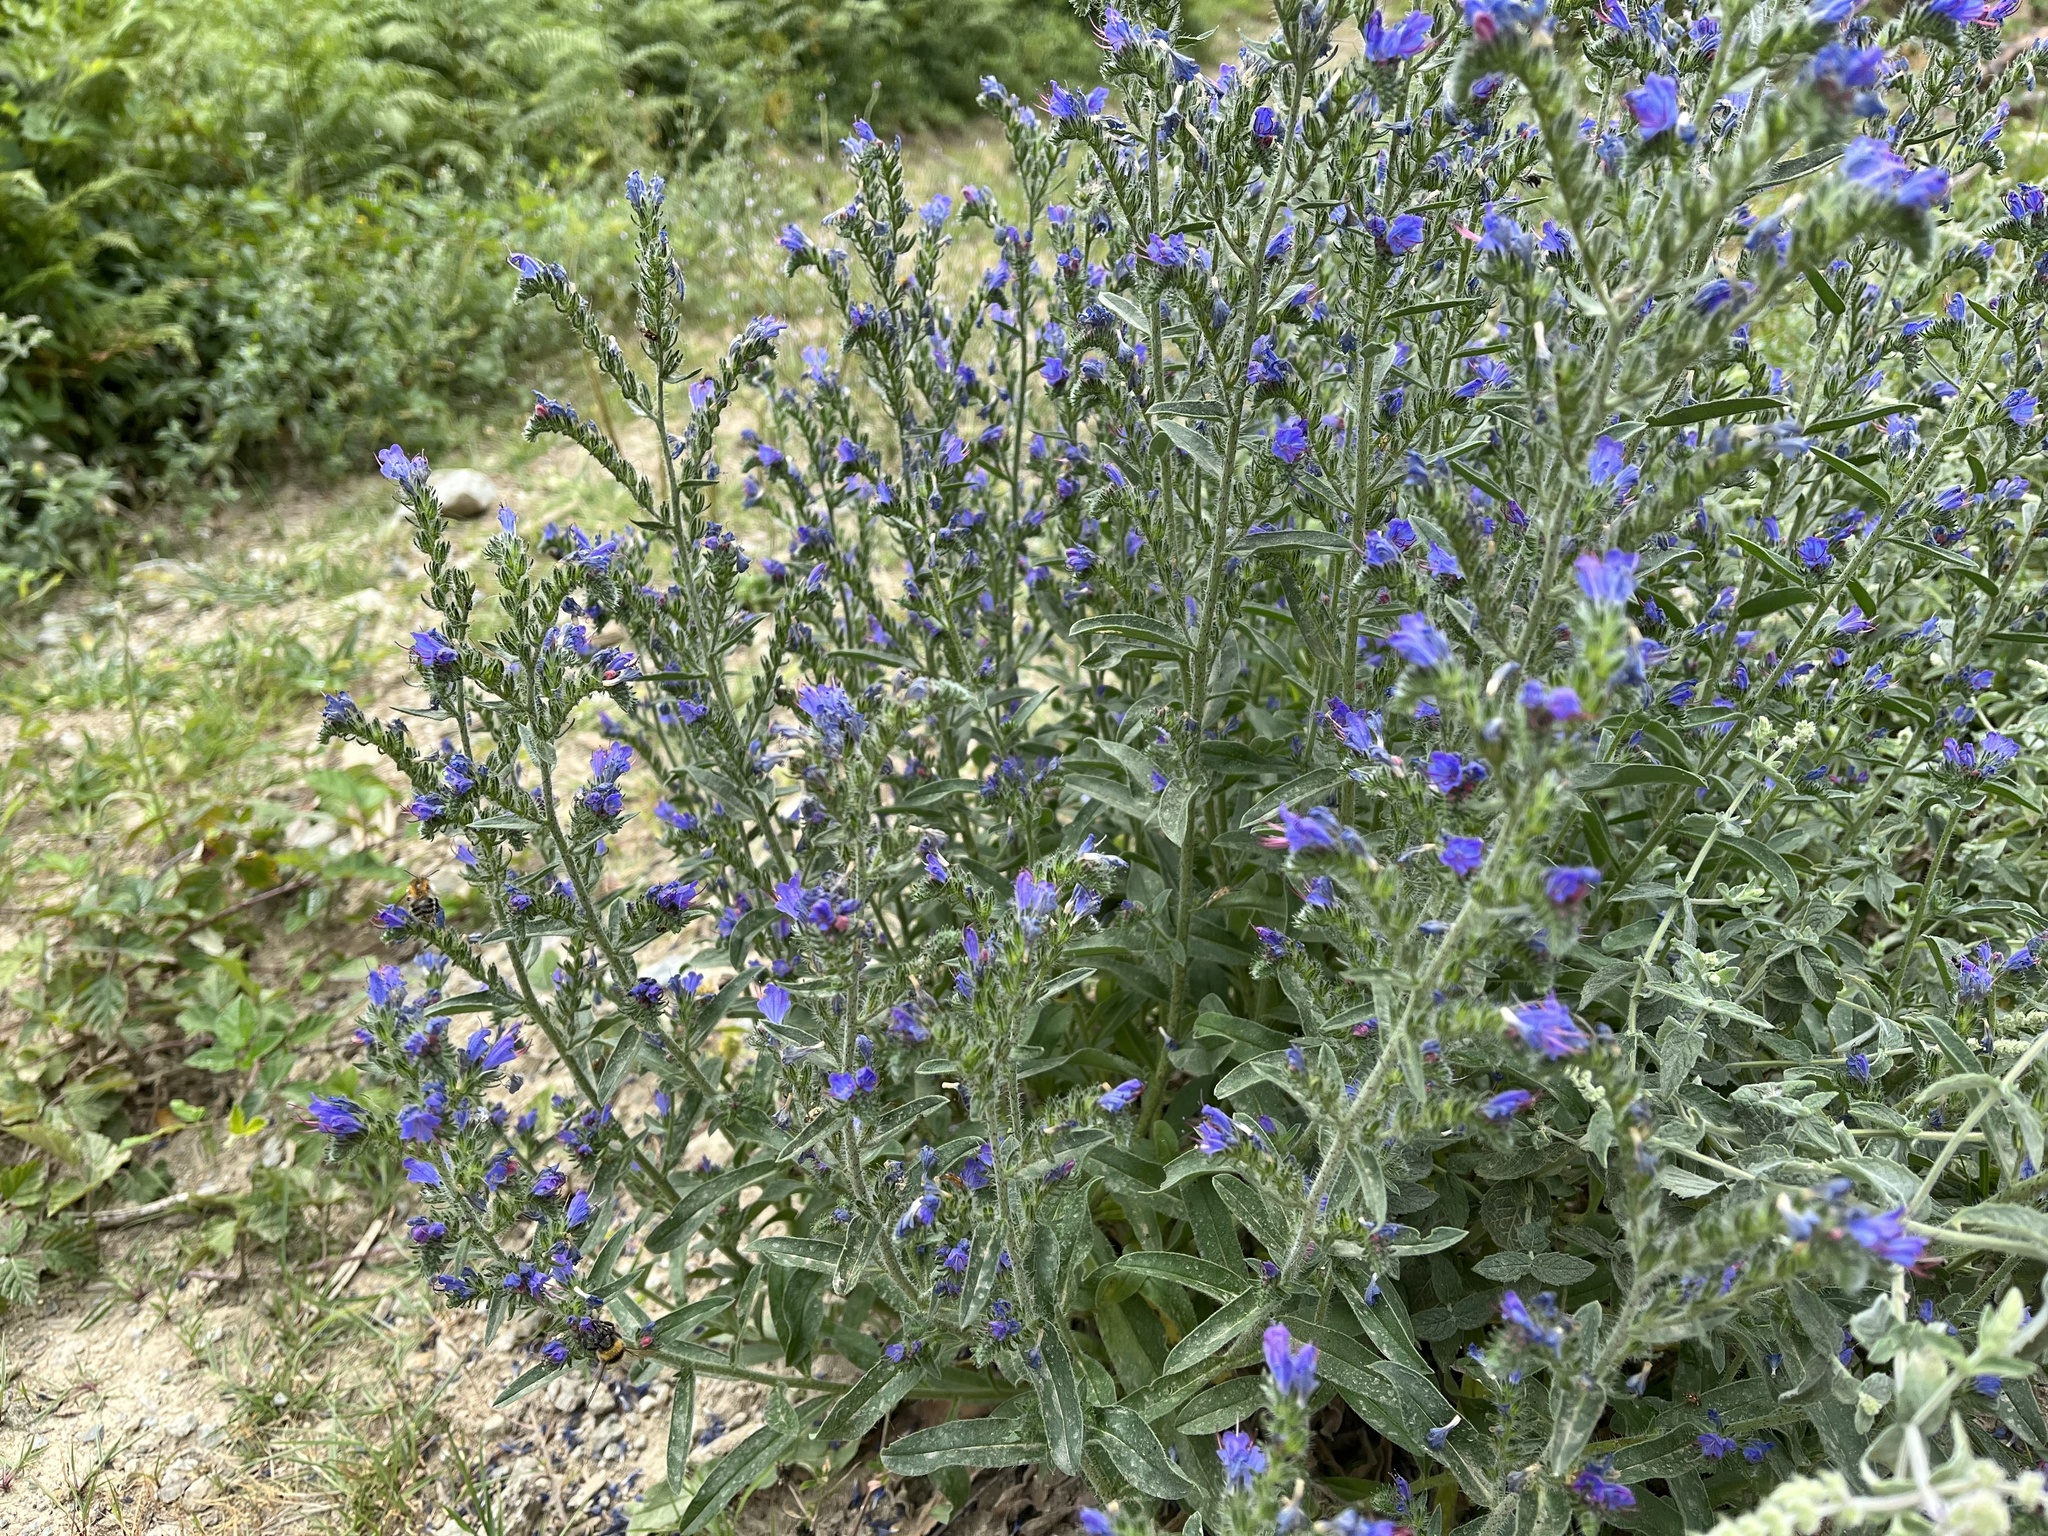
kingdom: Plantae
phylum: Tracheophyta
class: Magnoliopsida
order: Boraginales
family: Boraginaceae
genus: Echium
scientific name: Echium vulgare
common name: Common viper's bugloss
